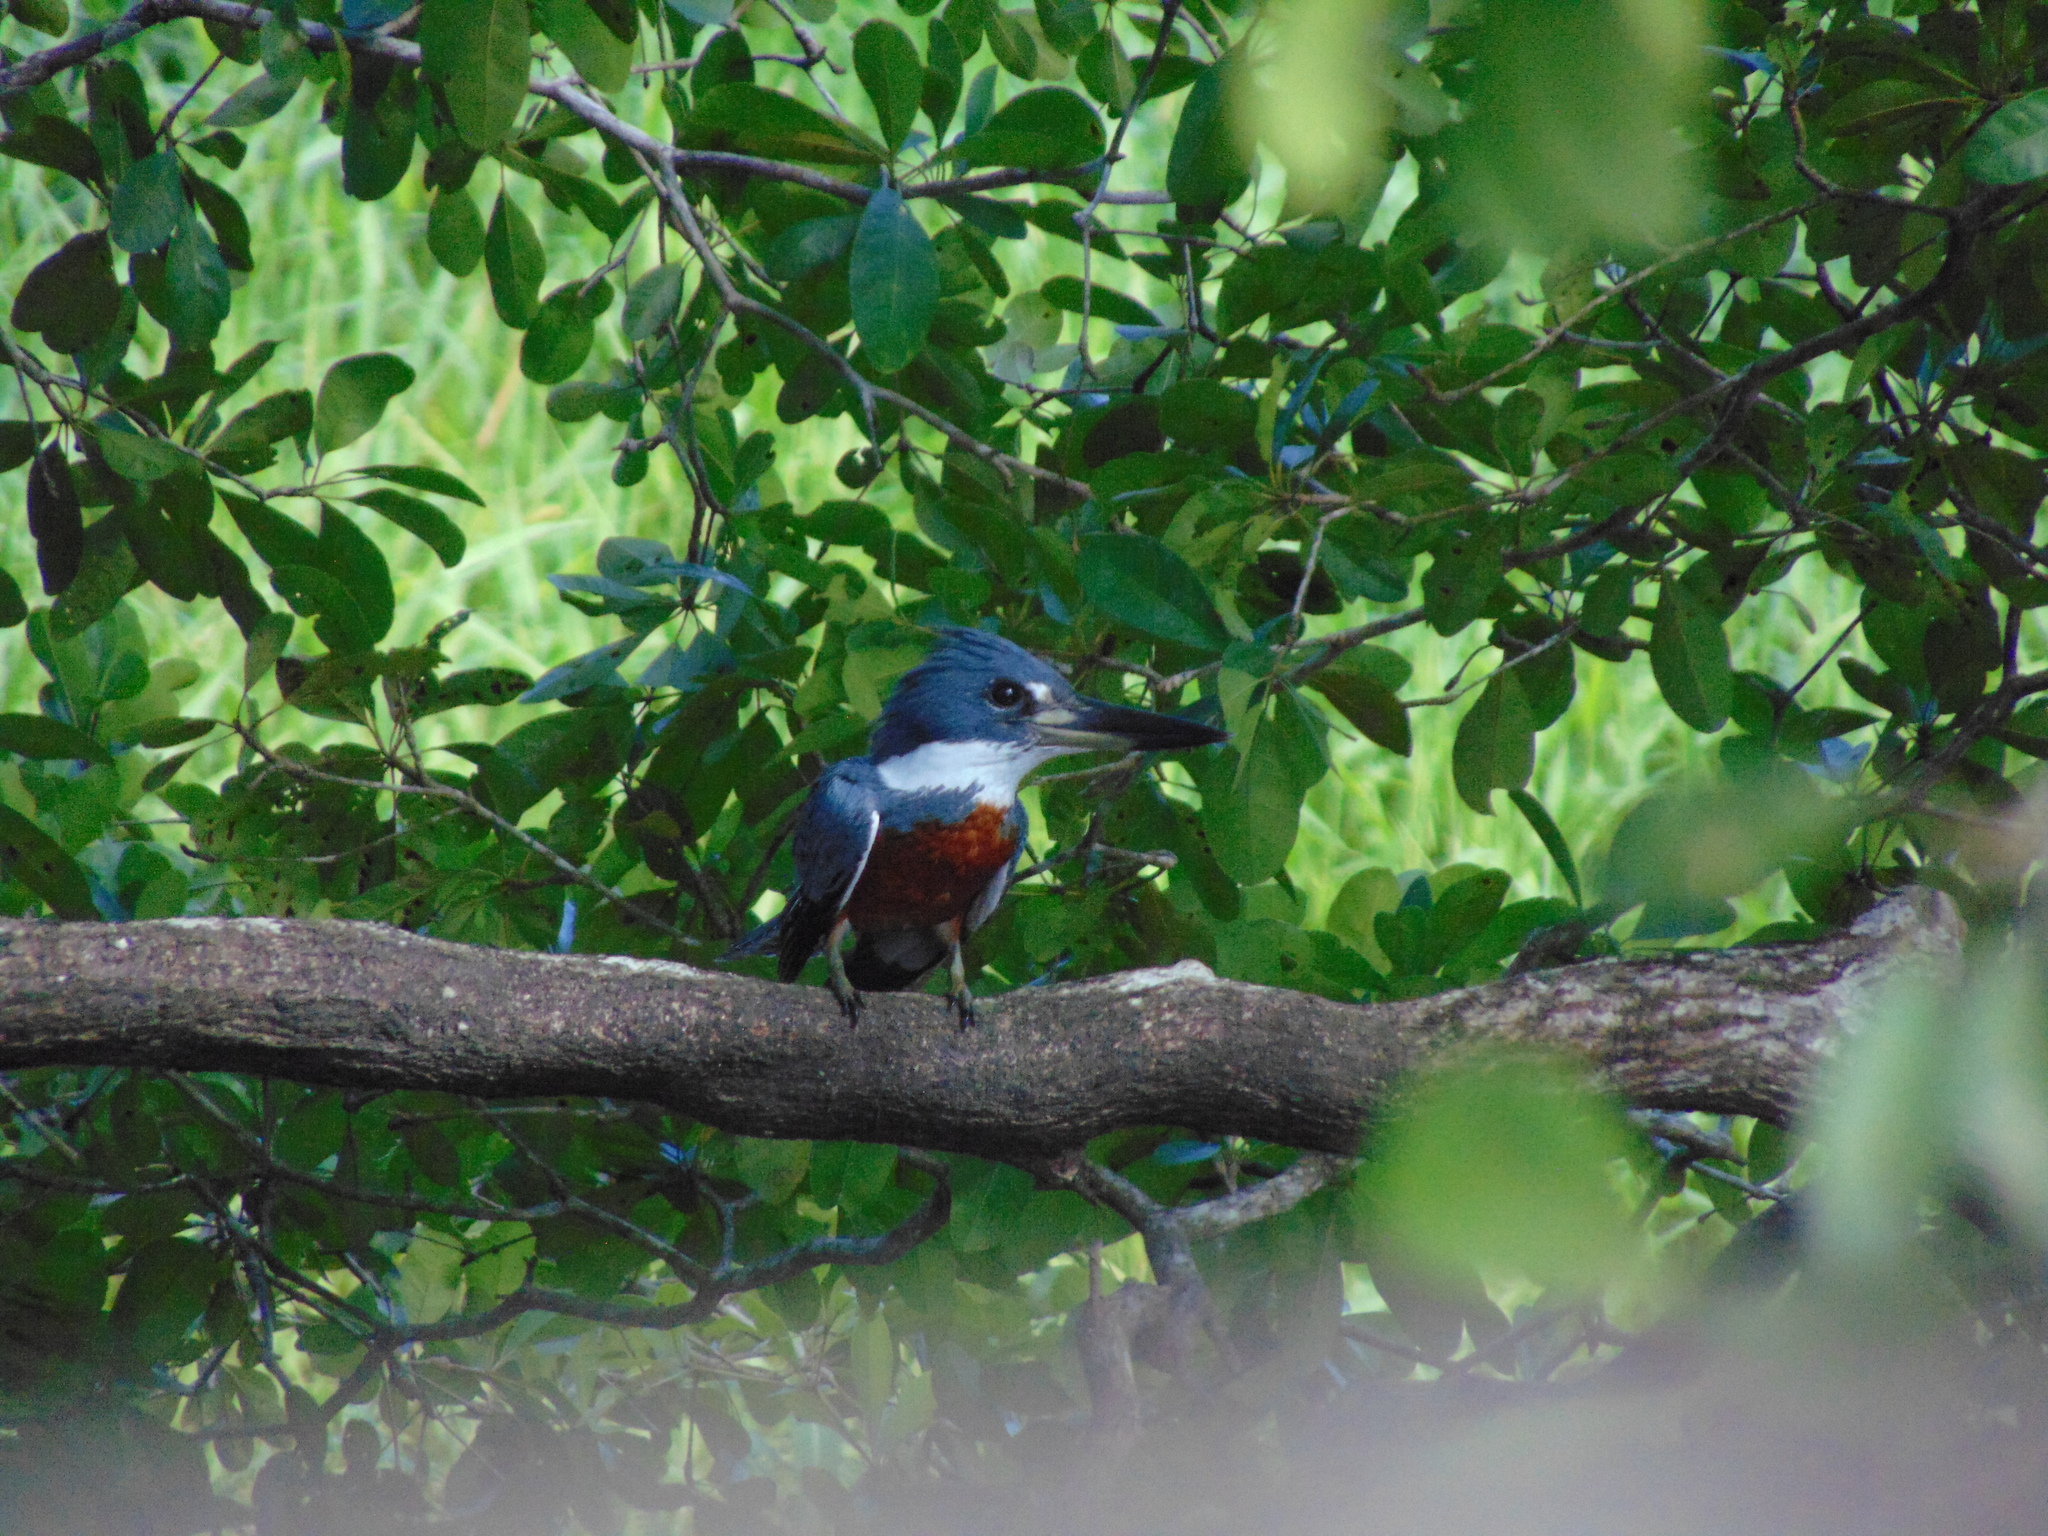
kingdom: Animalia
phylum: Chordata
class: Aves
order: Coraciiformes
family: Alcedinidae
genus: Megaceryle
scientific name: Megaceryle torquata
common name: Ringed kingfisher
